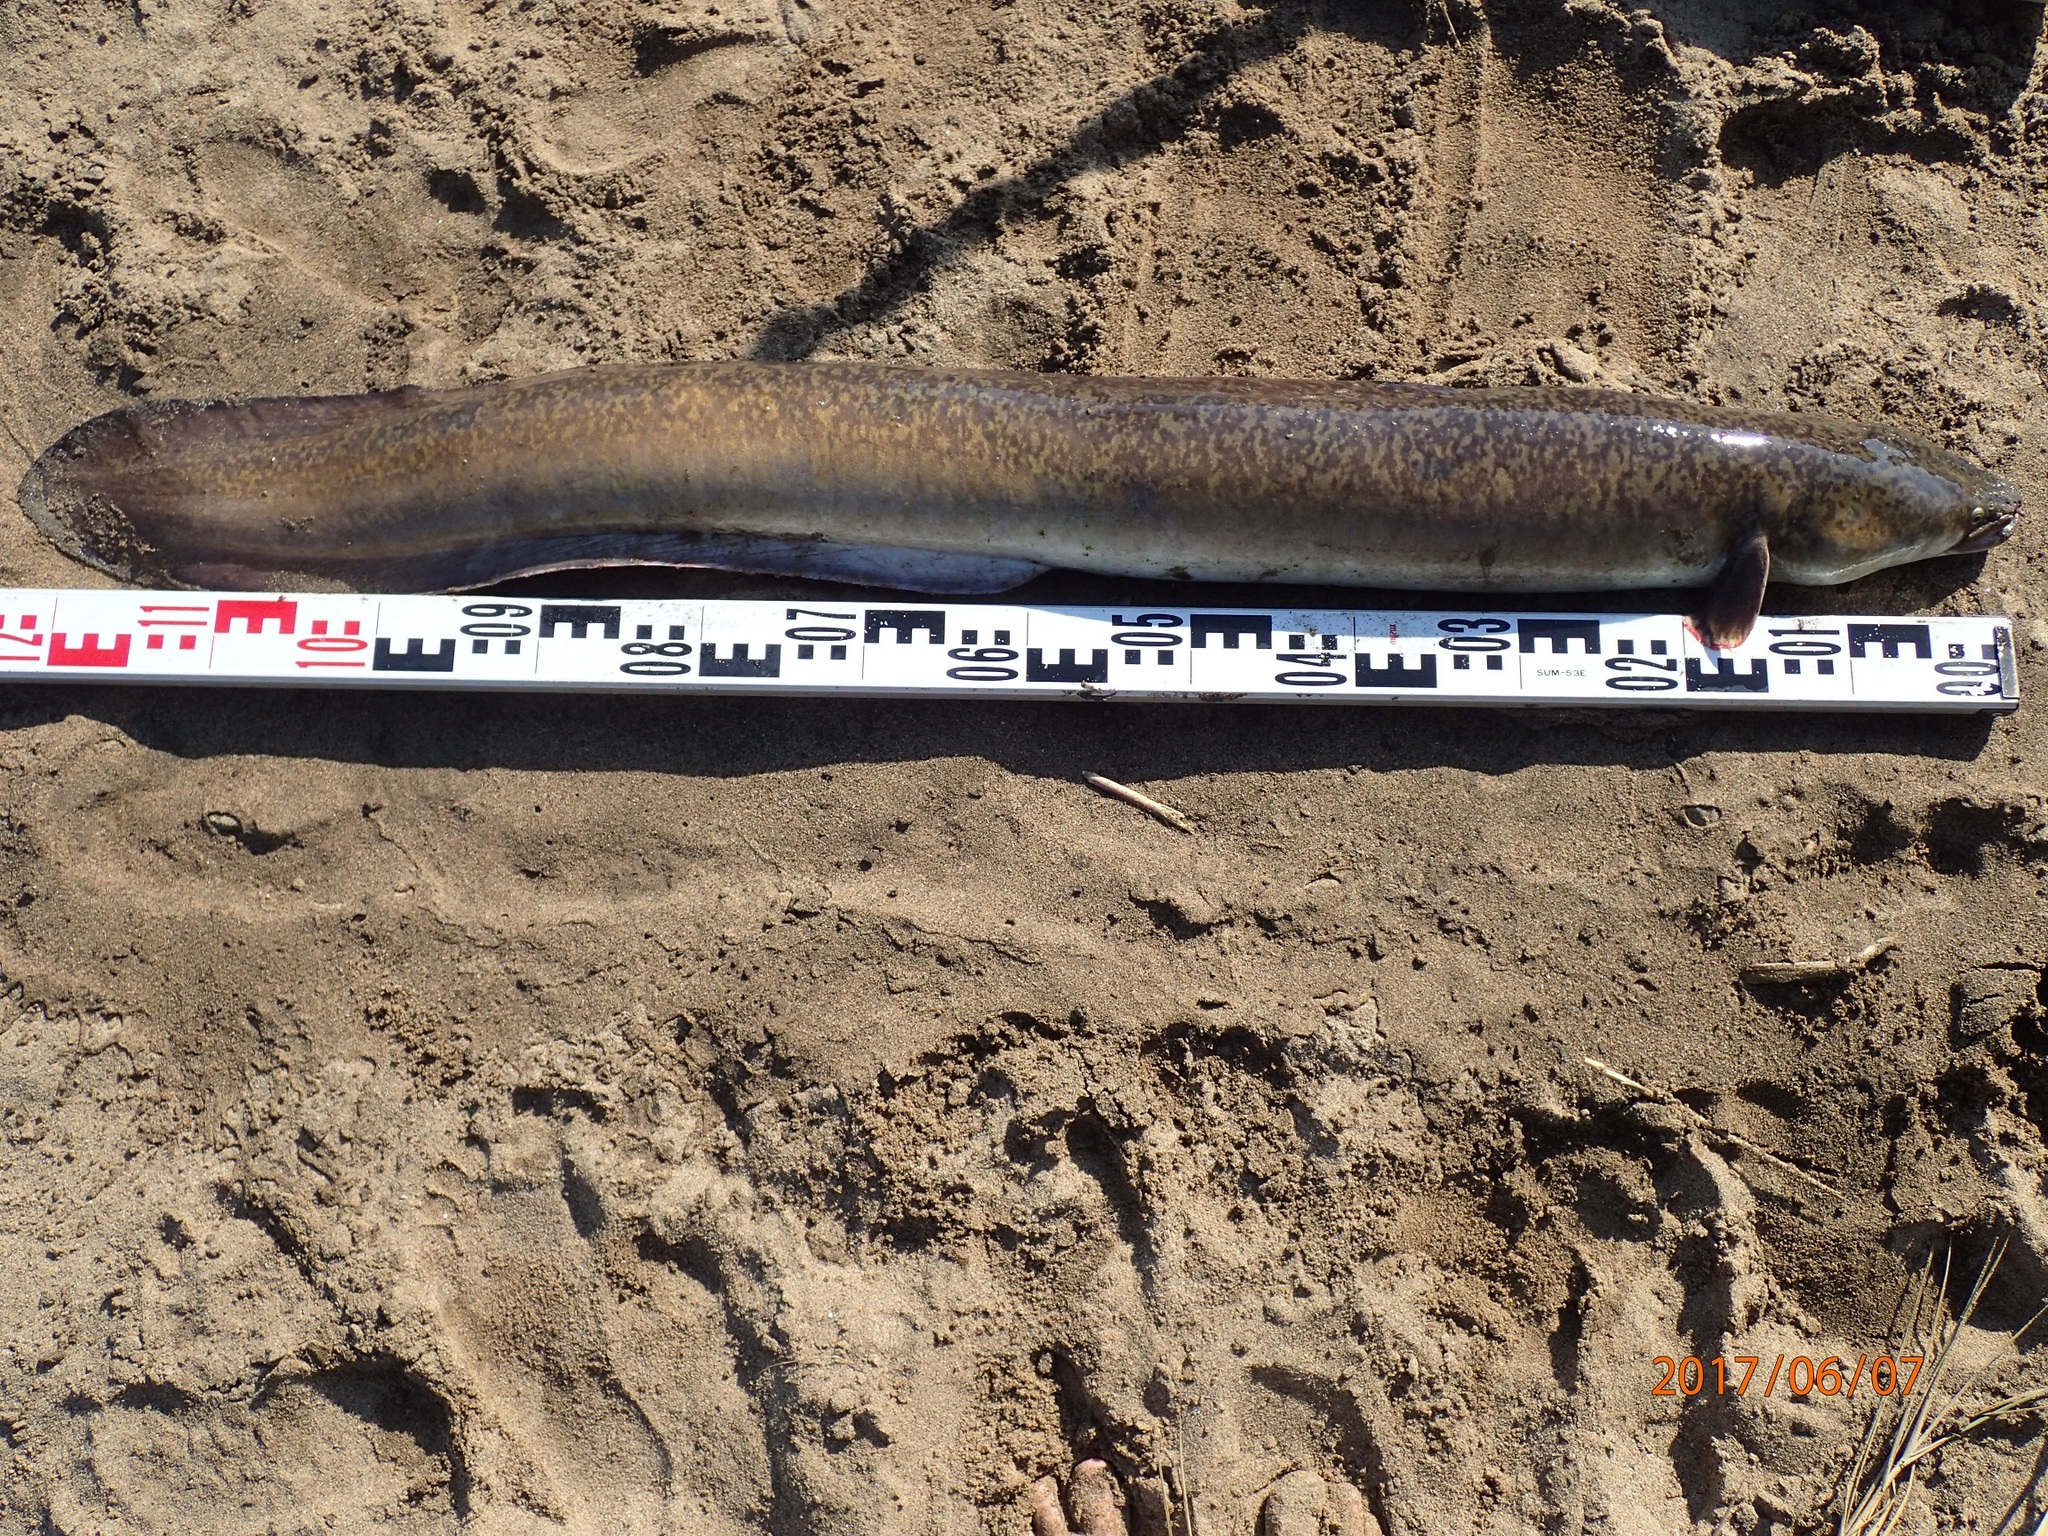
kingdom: Animalia
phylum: Chordata
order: Anguilliformes
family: Anguillidae
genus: Anguilla
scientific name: Anguilla marmorata
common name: Giant mottled eel
